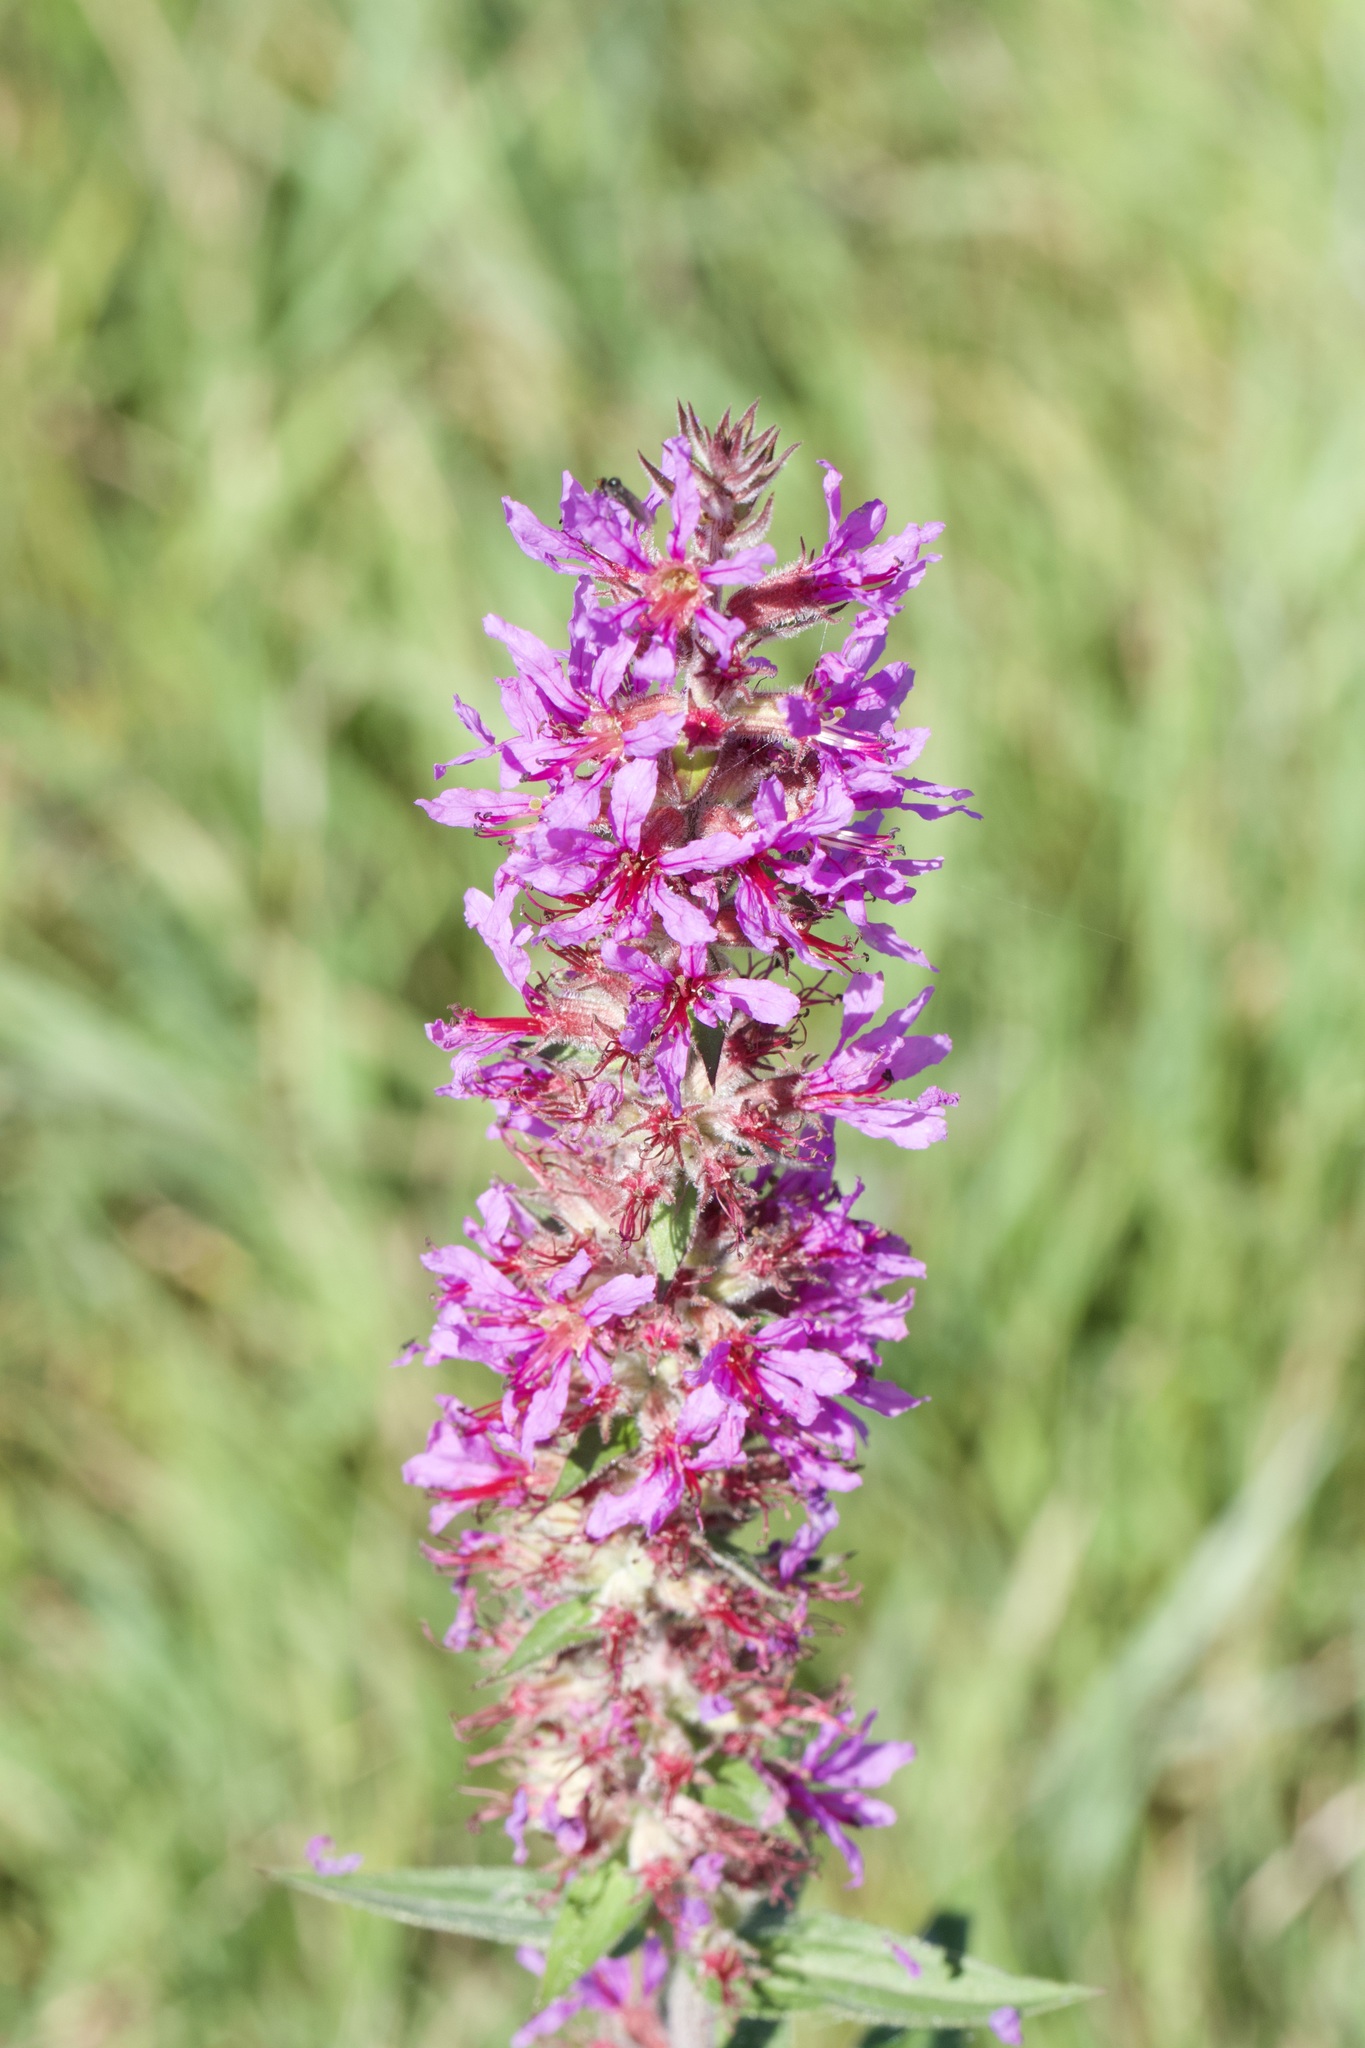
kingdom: Plantae
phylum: Tracheophyta
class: Magnoliopsida
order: Myrtales
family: Lythraceae
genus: Lythrum
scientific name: Lythrum salicaria
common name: Purple loosestrife
